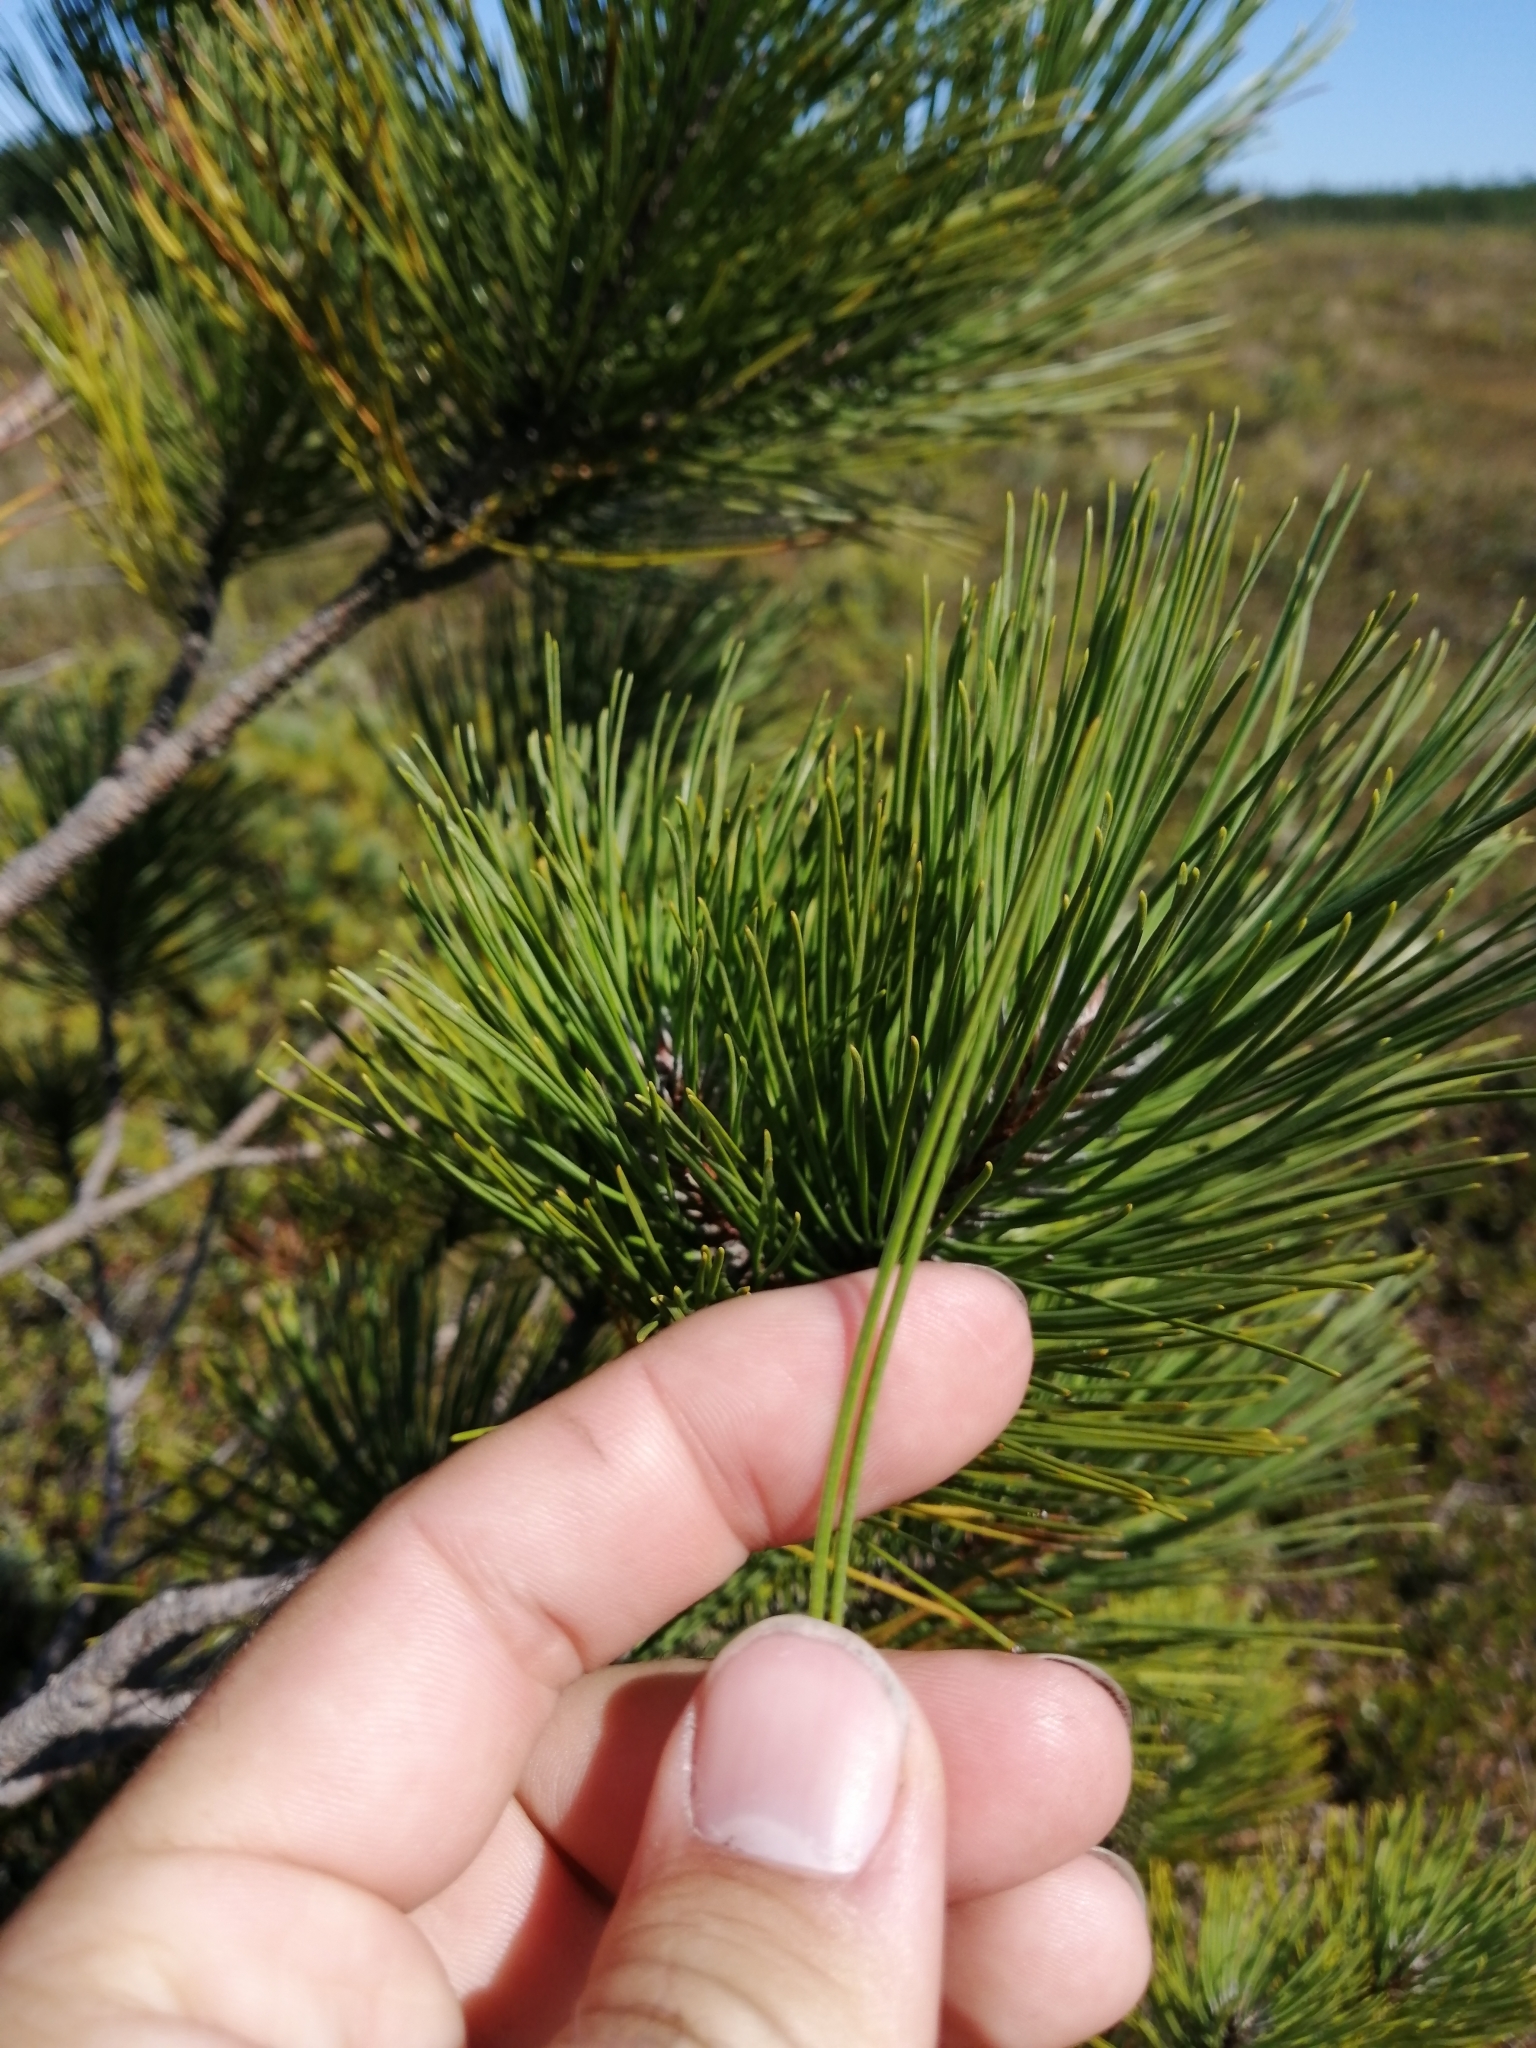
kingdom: Plantae
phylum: Tracheophyta
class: Pinopsida
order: Pinales
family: Pinaceae
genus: Pinus
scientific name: Pinus resinosa
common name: Norway pine
